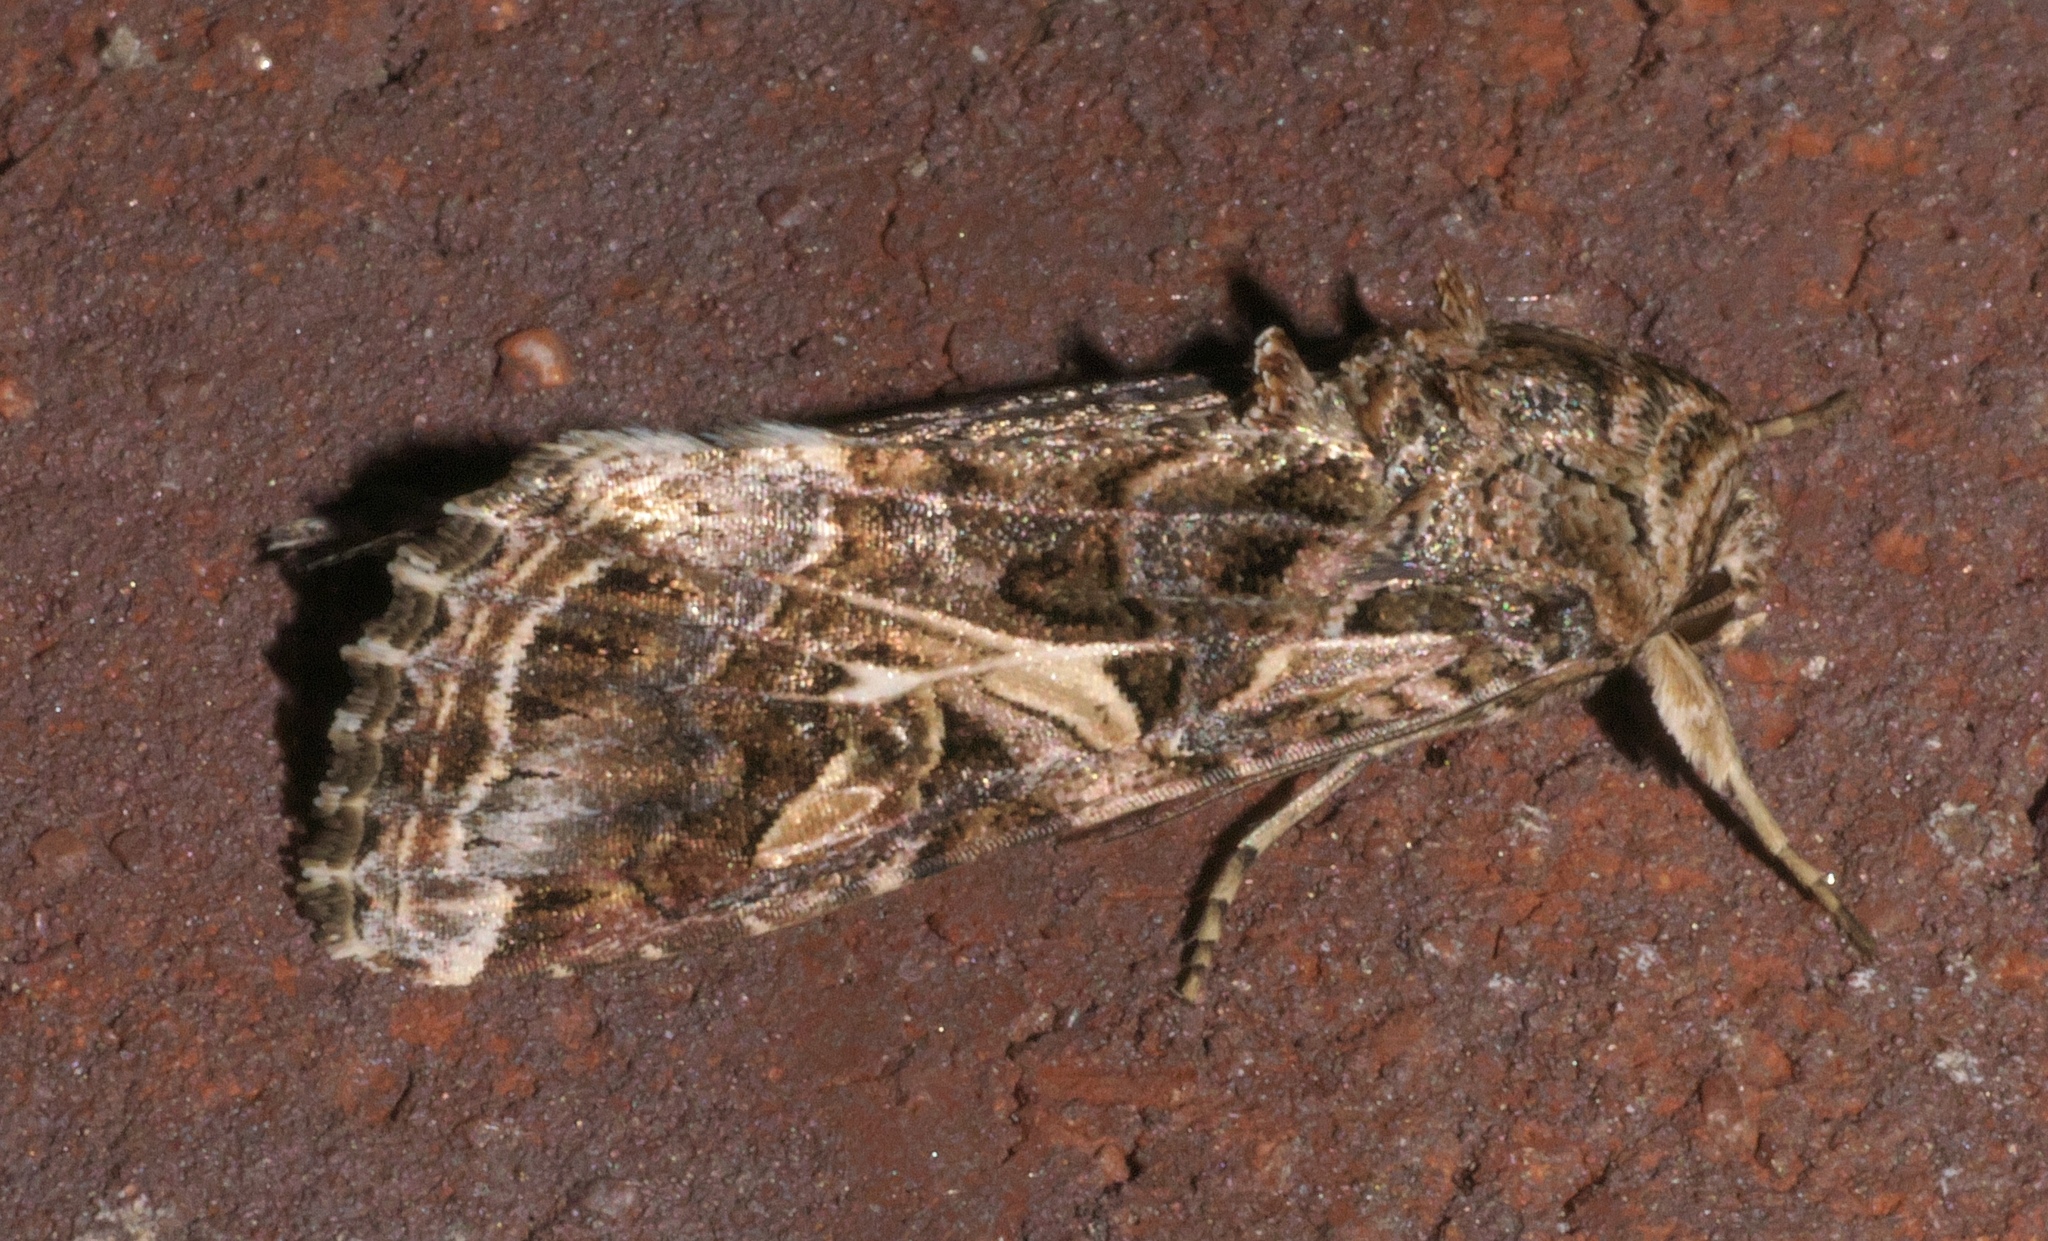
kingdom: Animalia
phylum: Arthropoda
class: Insecta
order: Lepidoptera
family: Noctuidae
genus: Spodoptera
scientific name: Spodoptera ornithogalli
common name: Yellow-striped armyworm
